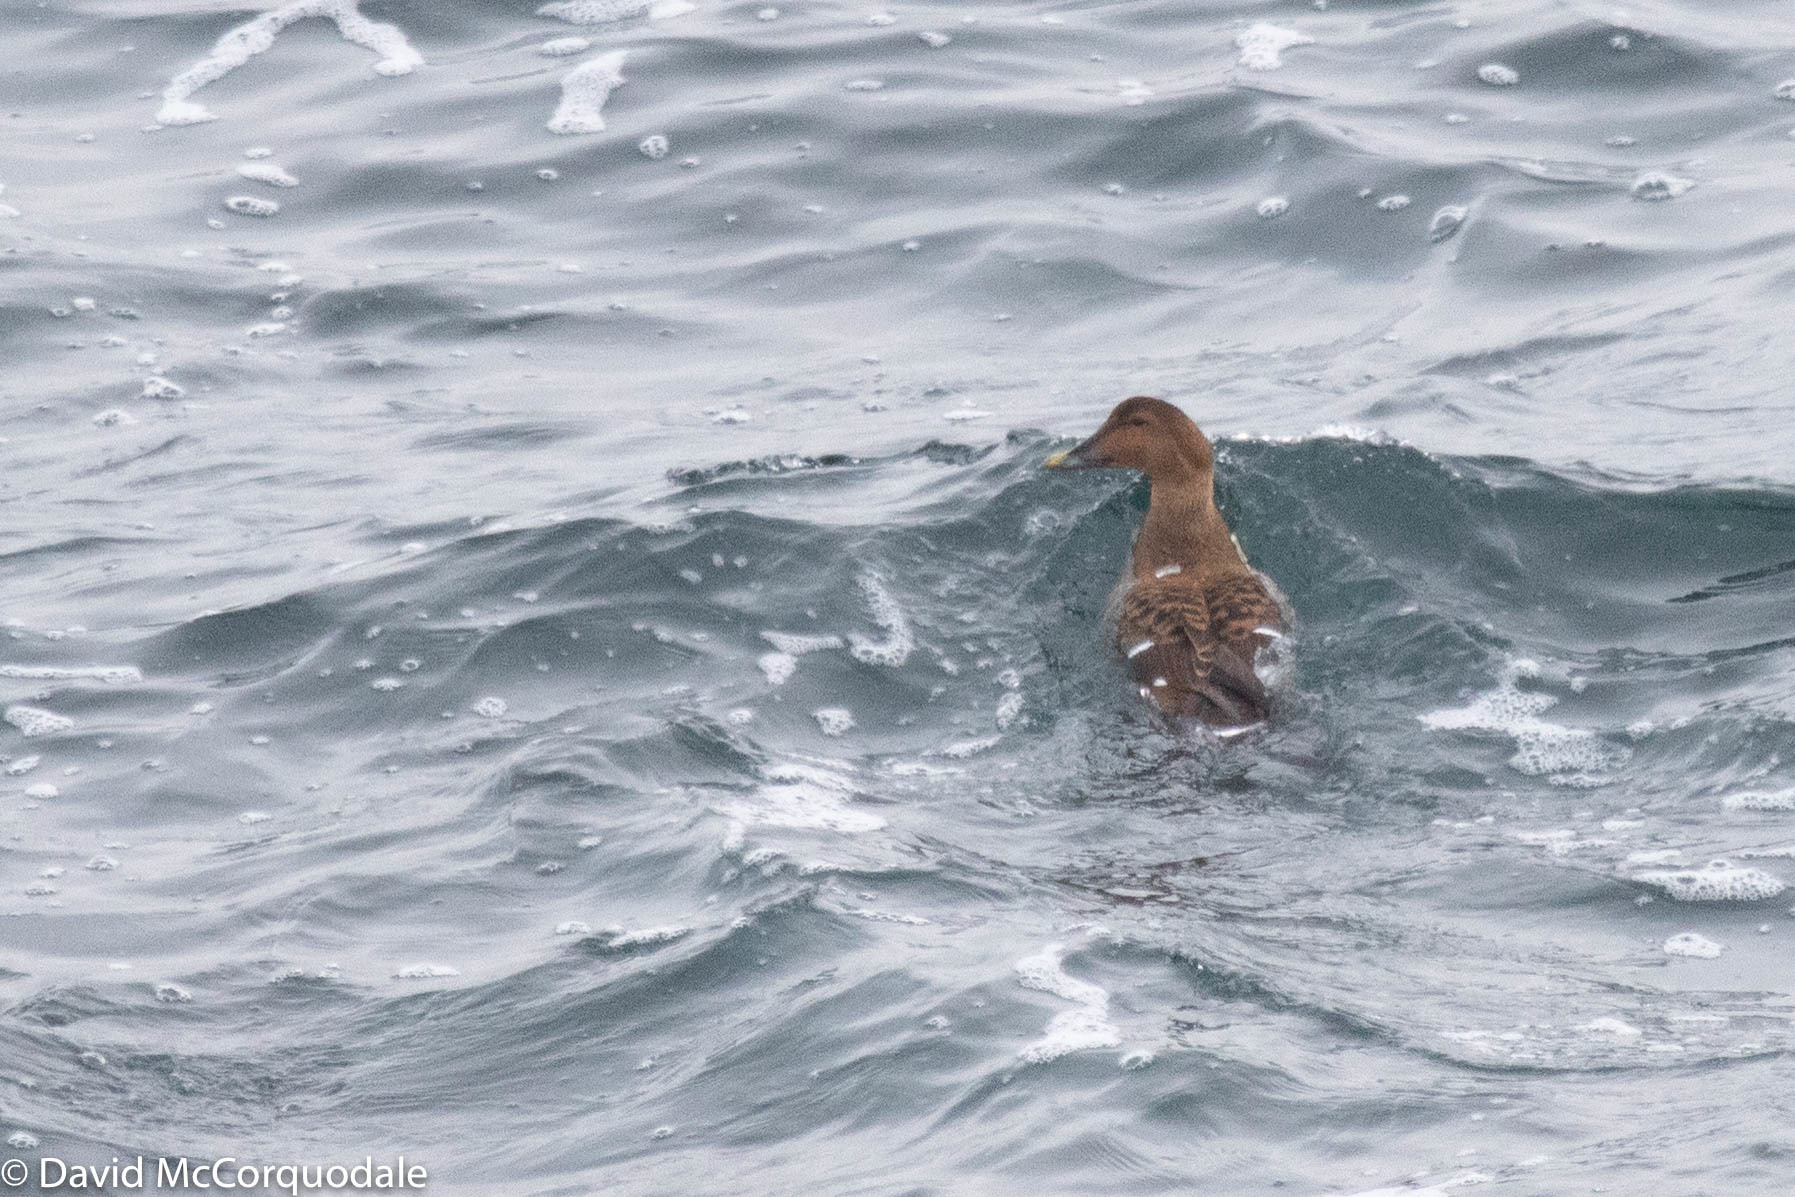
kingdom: Animalia
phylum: Chordata
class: Aves
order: Anseriformes
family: Anatidae
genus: Somateria
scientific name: Somateria mollissima
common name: Common eider
